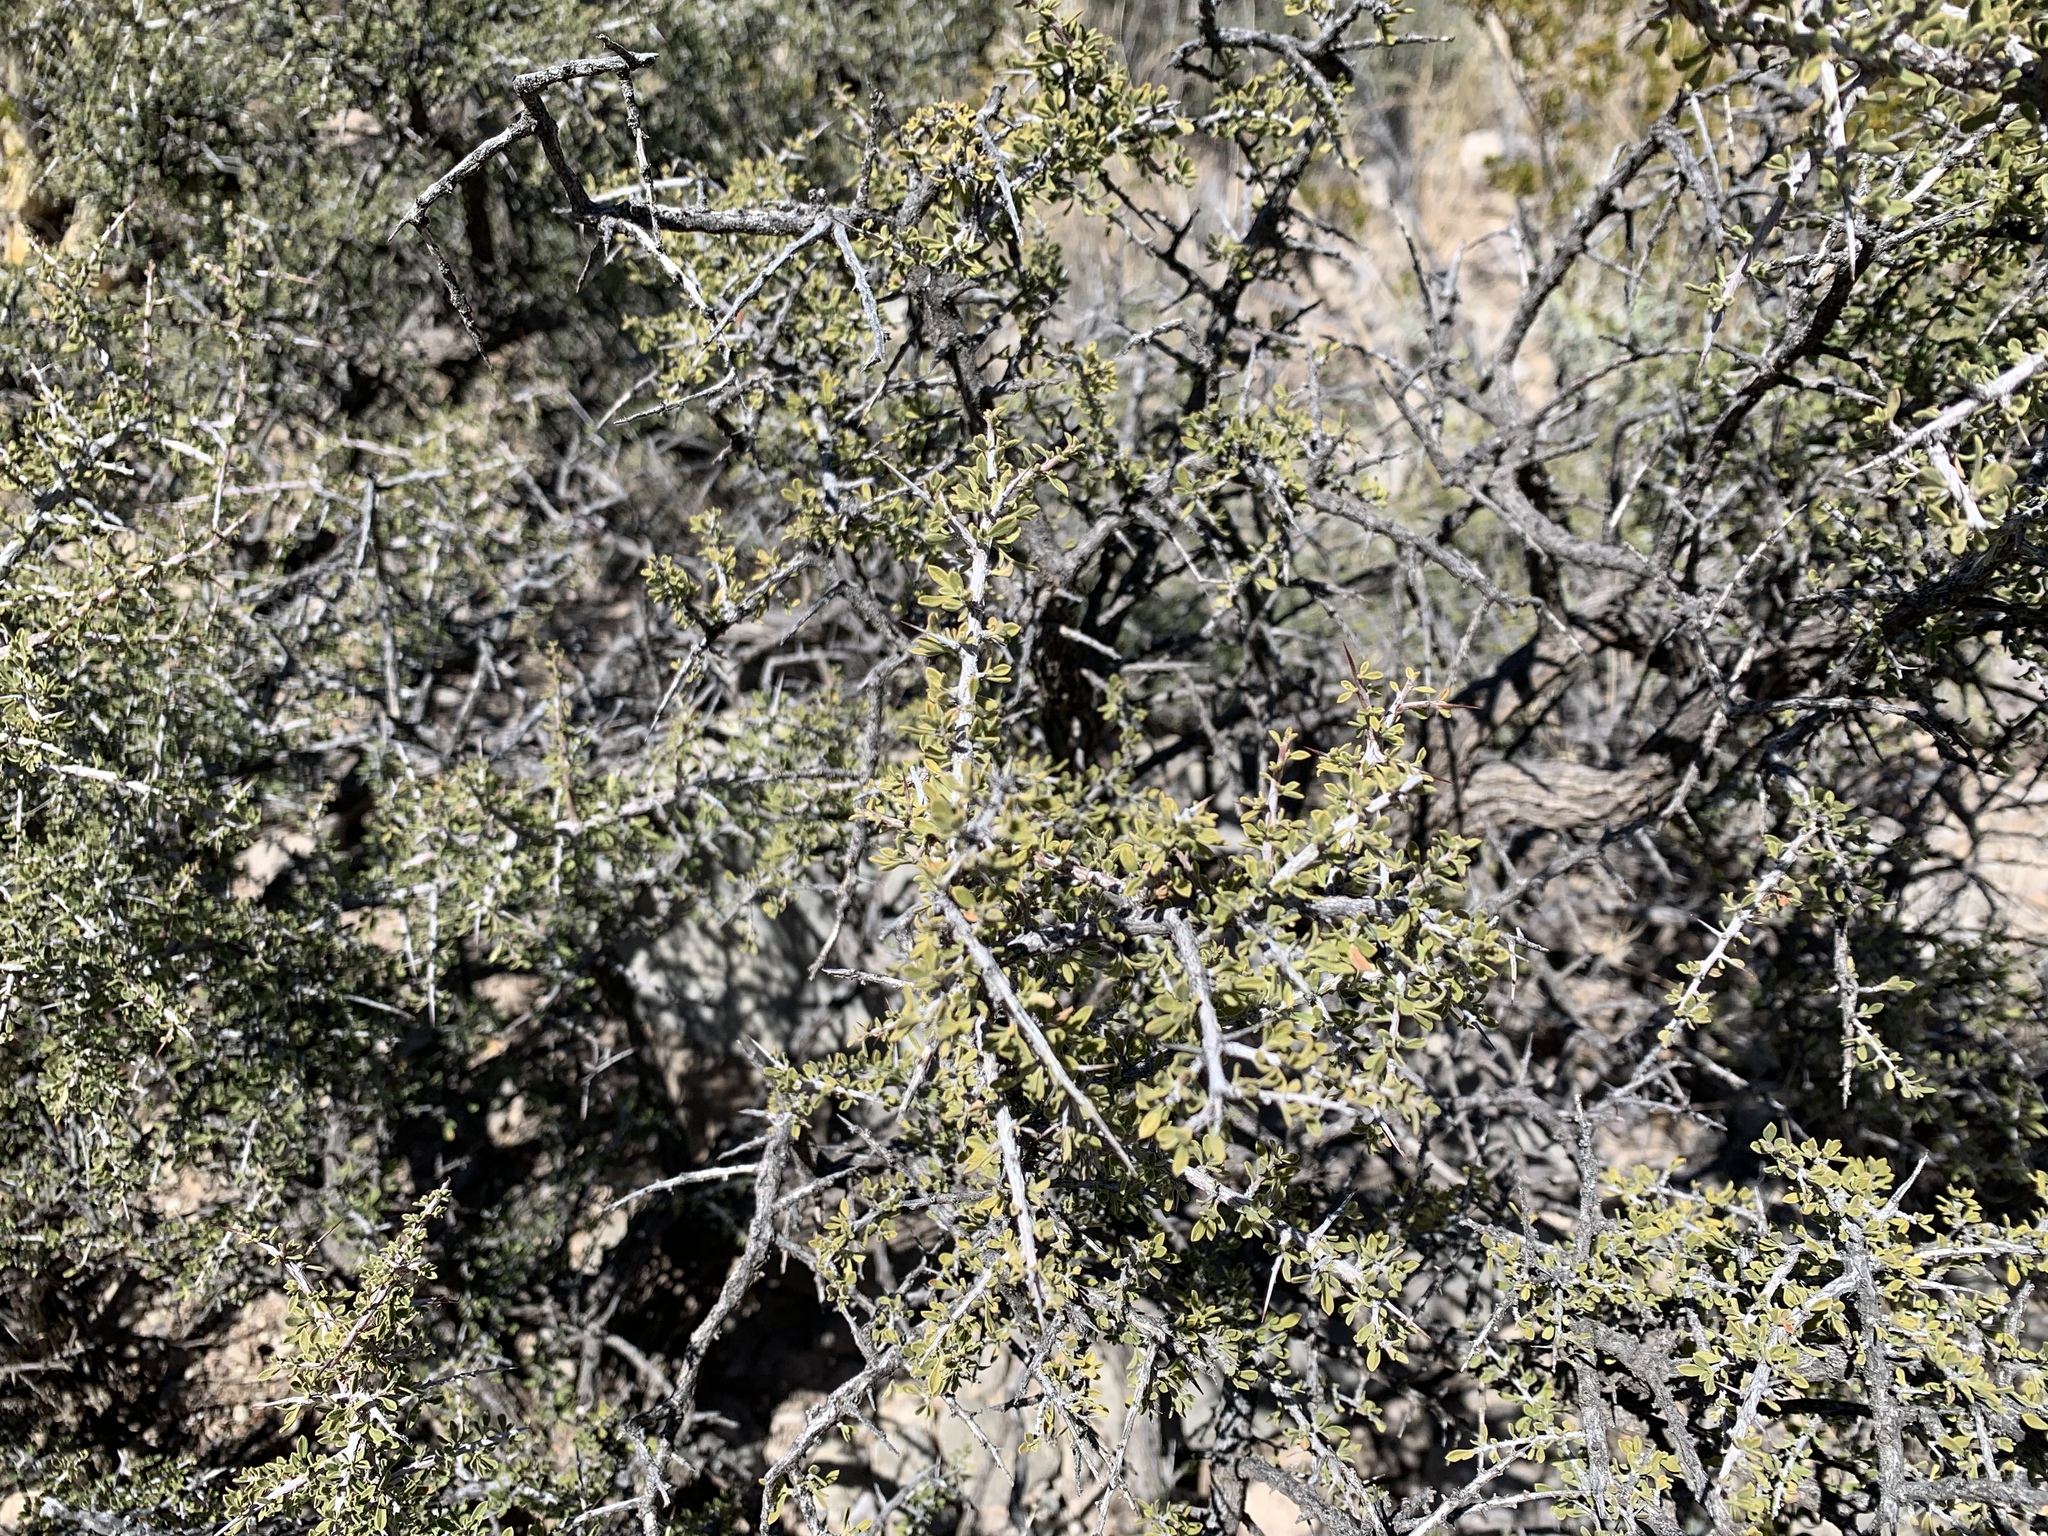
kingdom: Plantae
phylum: Tracheophyta
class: Magnoliopsida
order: Rosales
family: Rhamnaceae
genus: Condalia
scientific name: Condalia warnockii
